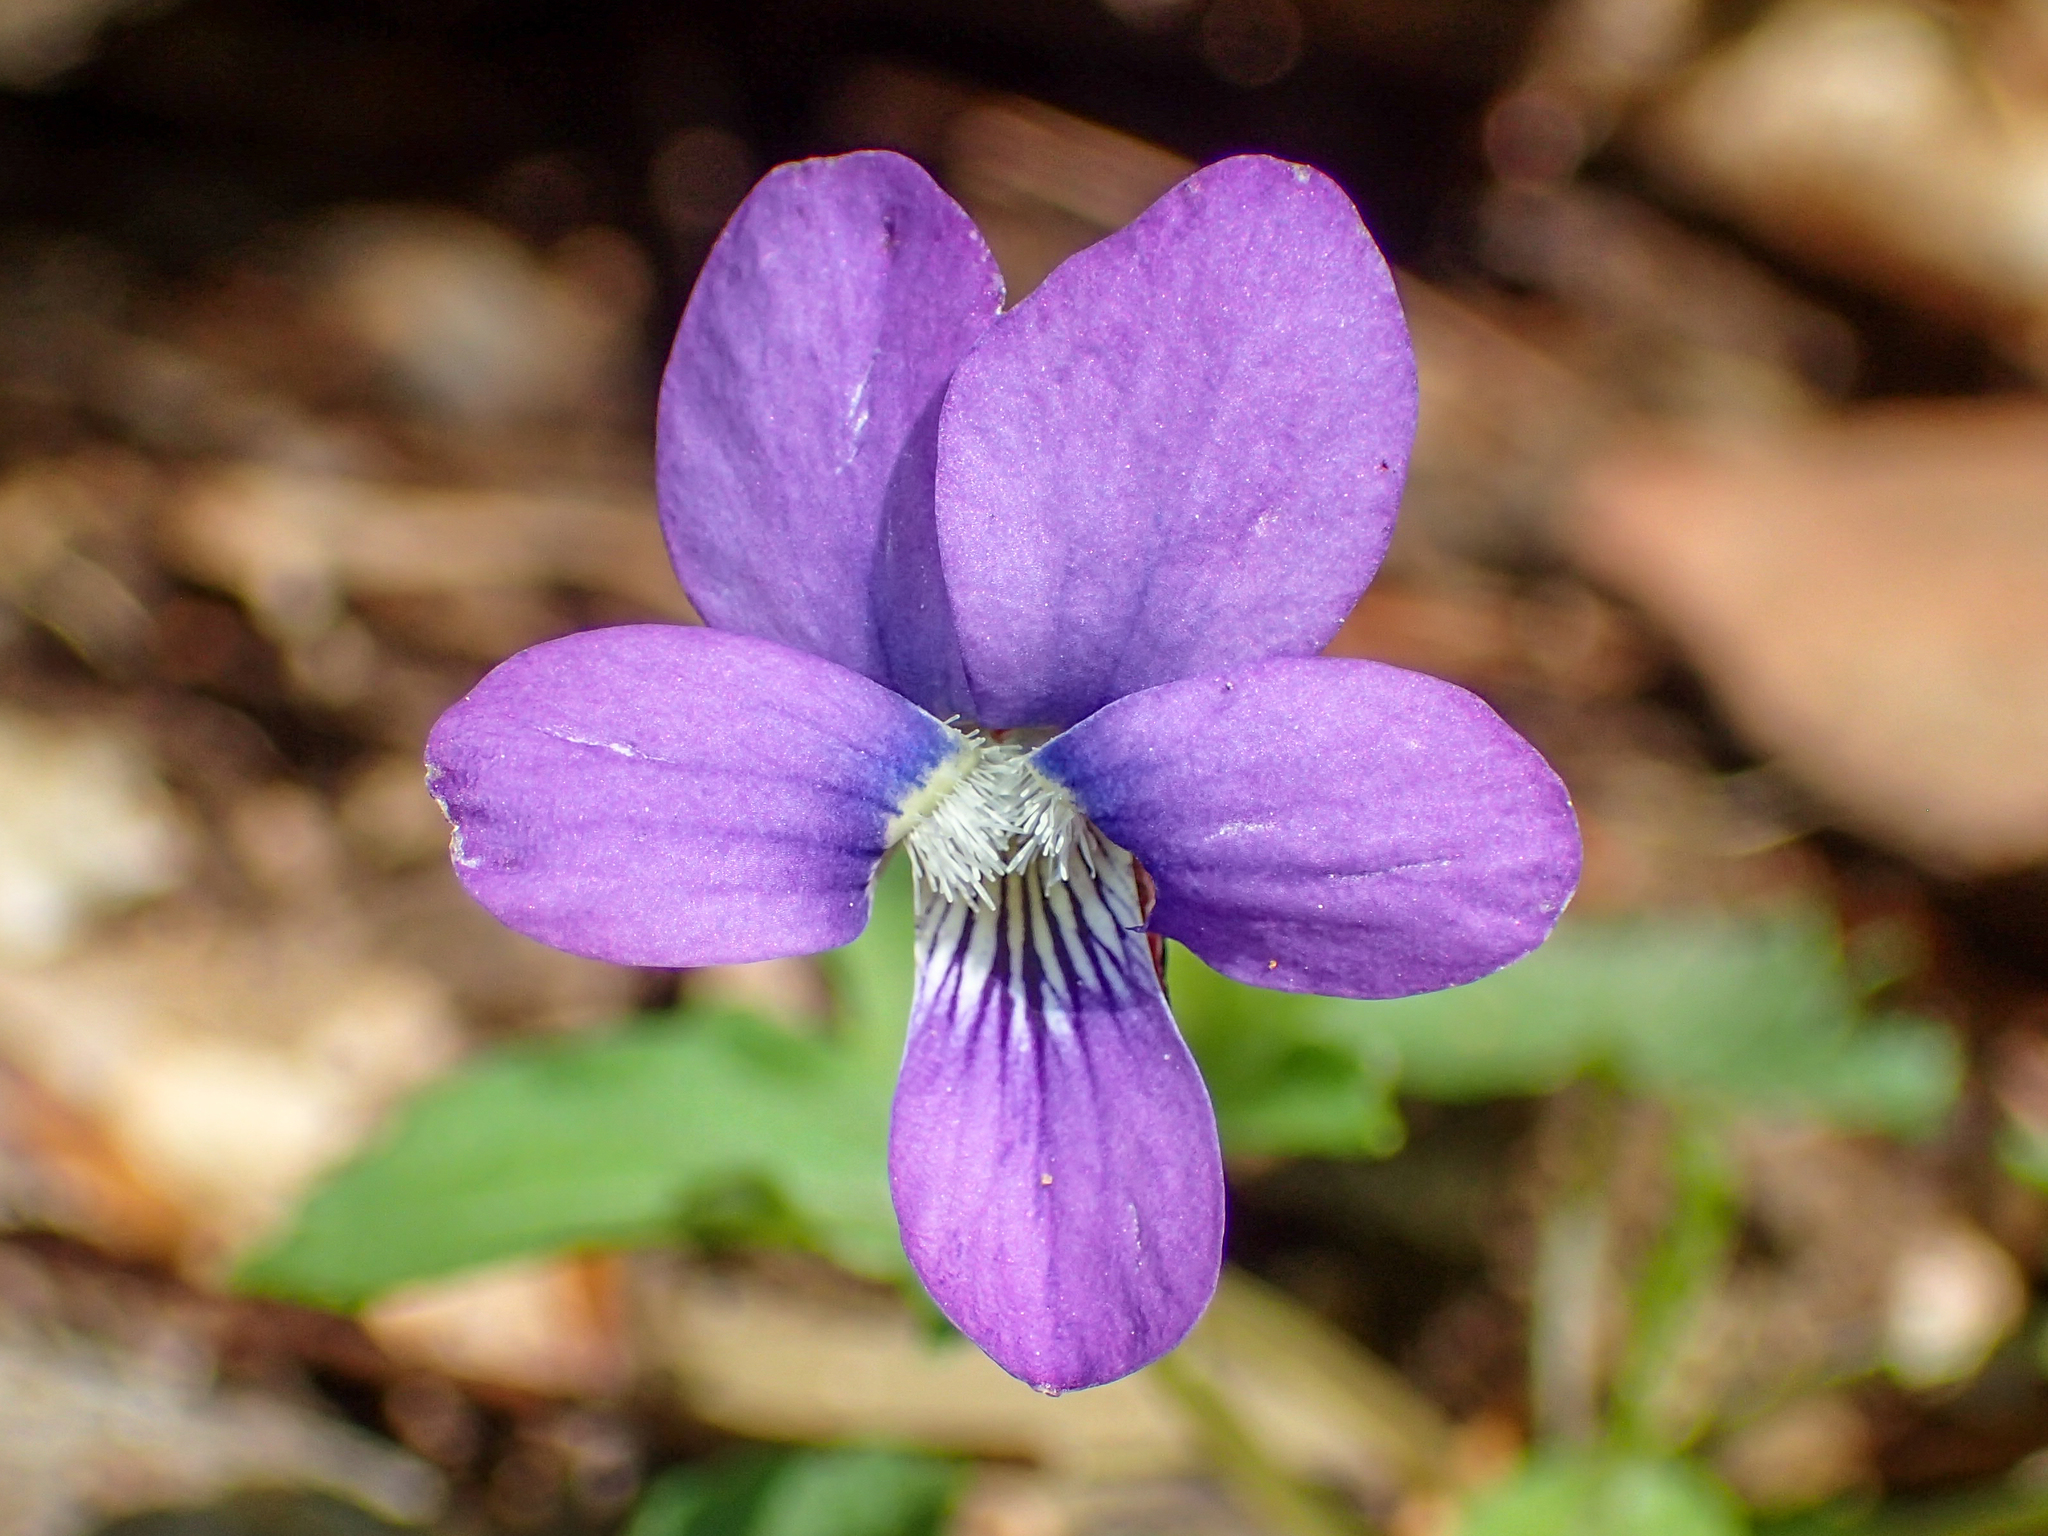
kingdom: Plantae
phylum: Tracheophyta
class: Magnoliopsida
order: Malpighiales
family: Violaceae
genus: Viola
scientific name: Viola palmata
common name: Early blue violet
